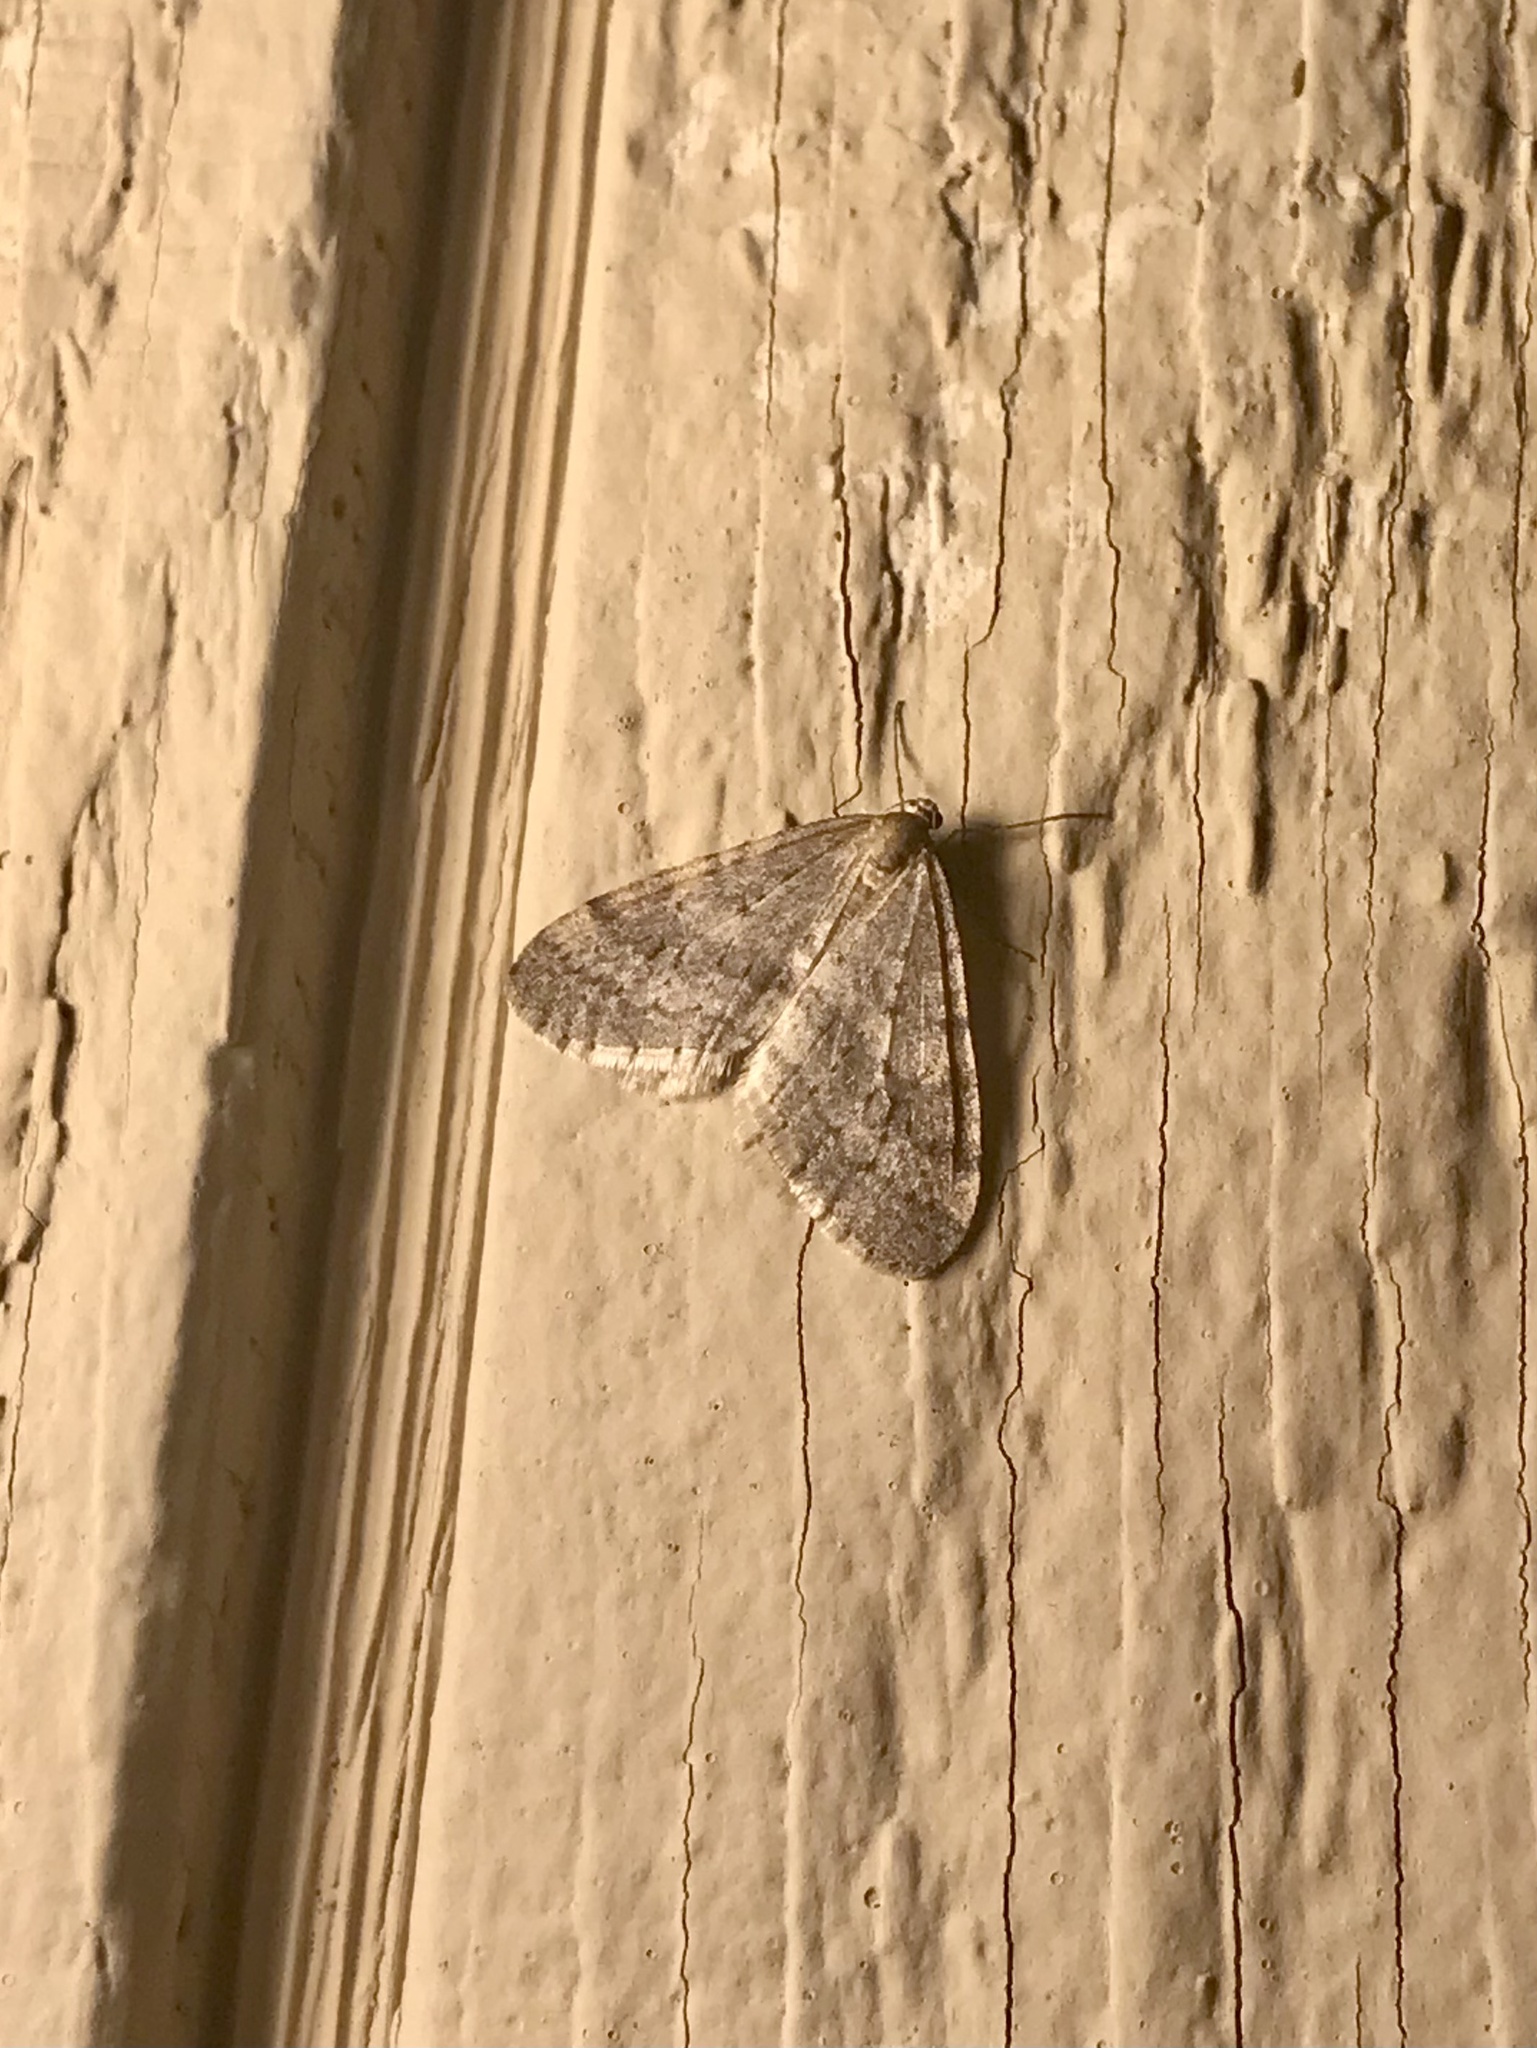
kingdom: Animalia
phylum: Arthropoda
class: Insecta
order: Lepidoptera
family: Geometridae
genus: Operophtera
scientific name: Operophtera bruceata
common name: Bruce spanworm
